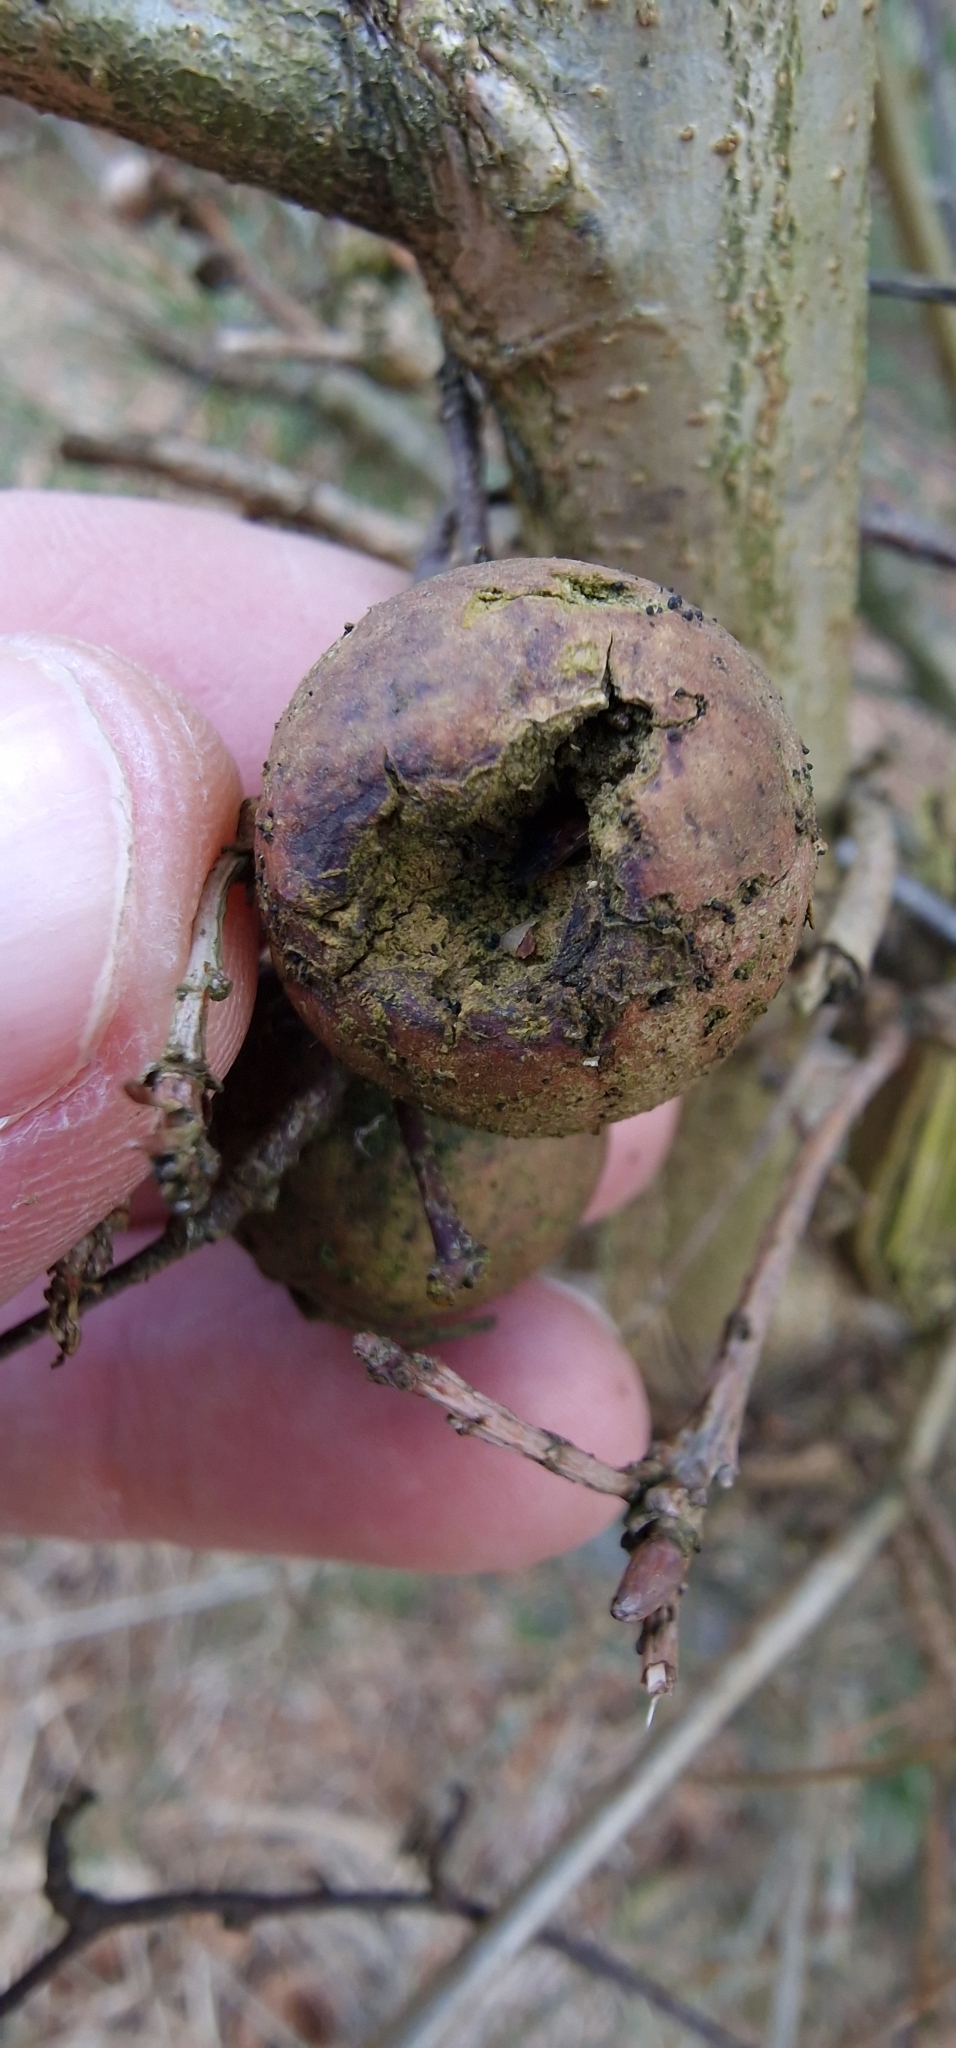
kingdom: Animalia
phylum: Arthropoda
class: Insecta
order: Hymenoptera
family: Cynipidae
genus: Andricus
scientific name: Andricus kollari
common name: Marble gall
